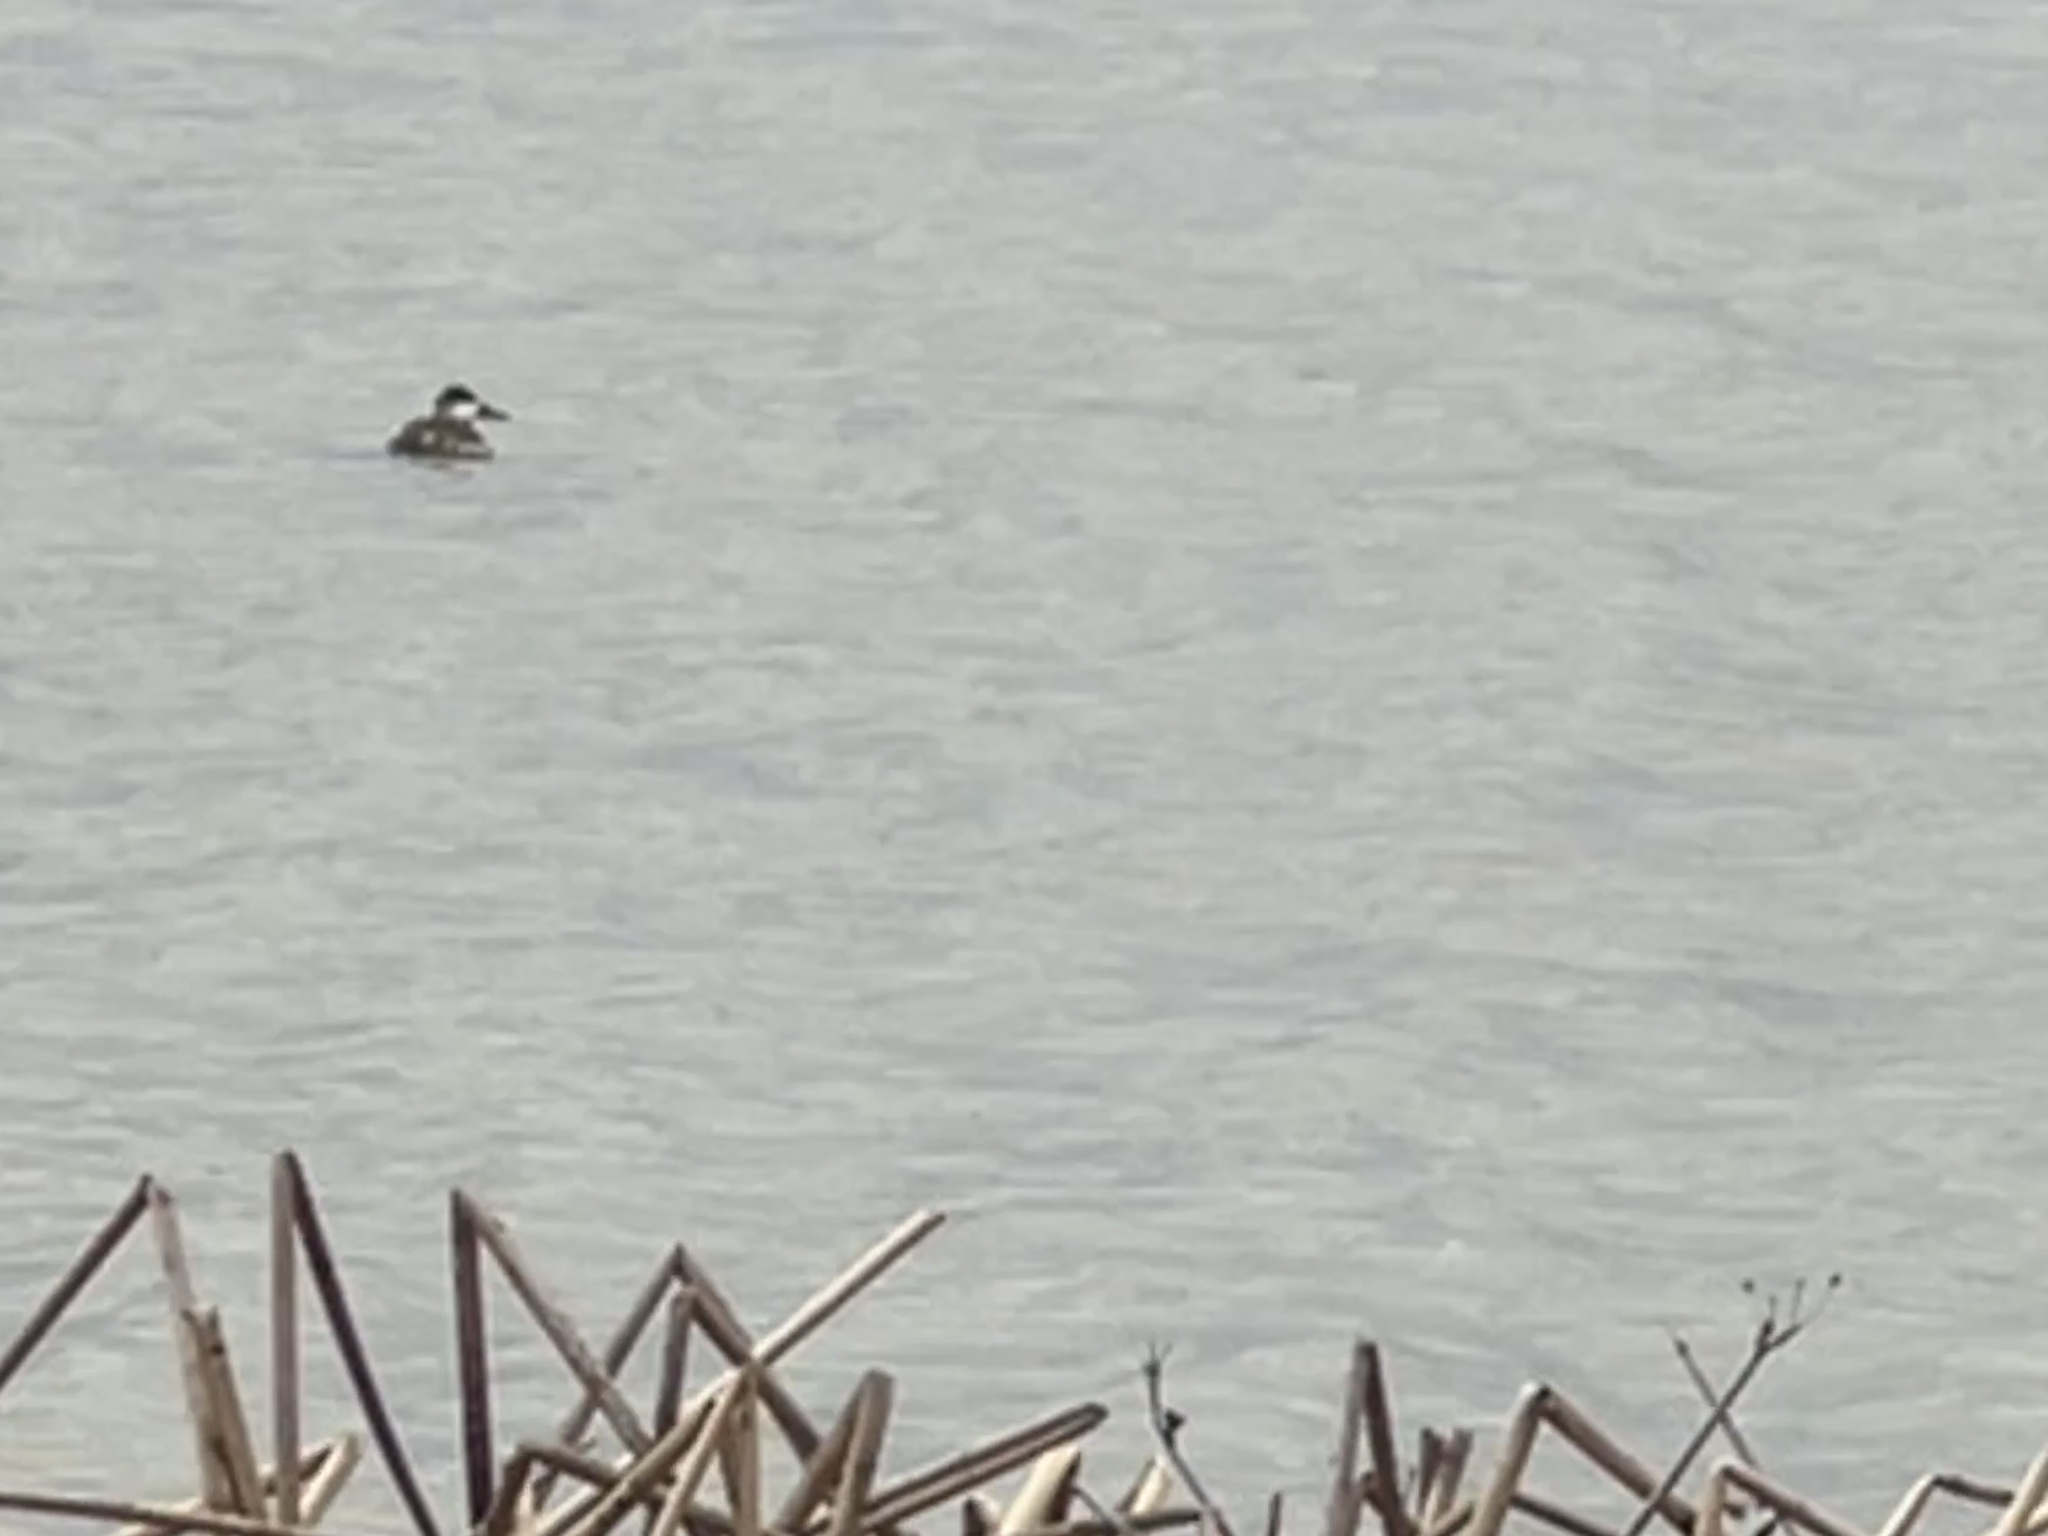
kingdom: Animalia
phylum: Chordata
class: Aves
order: Anseriformes
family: Anatidae
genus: Oxyura
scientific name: Oxyura jamaicensis
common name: Ruddy duck
